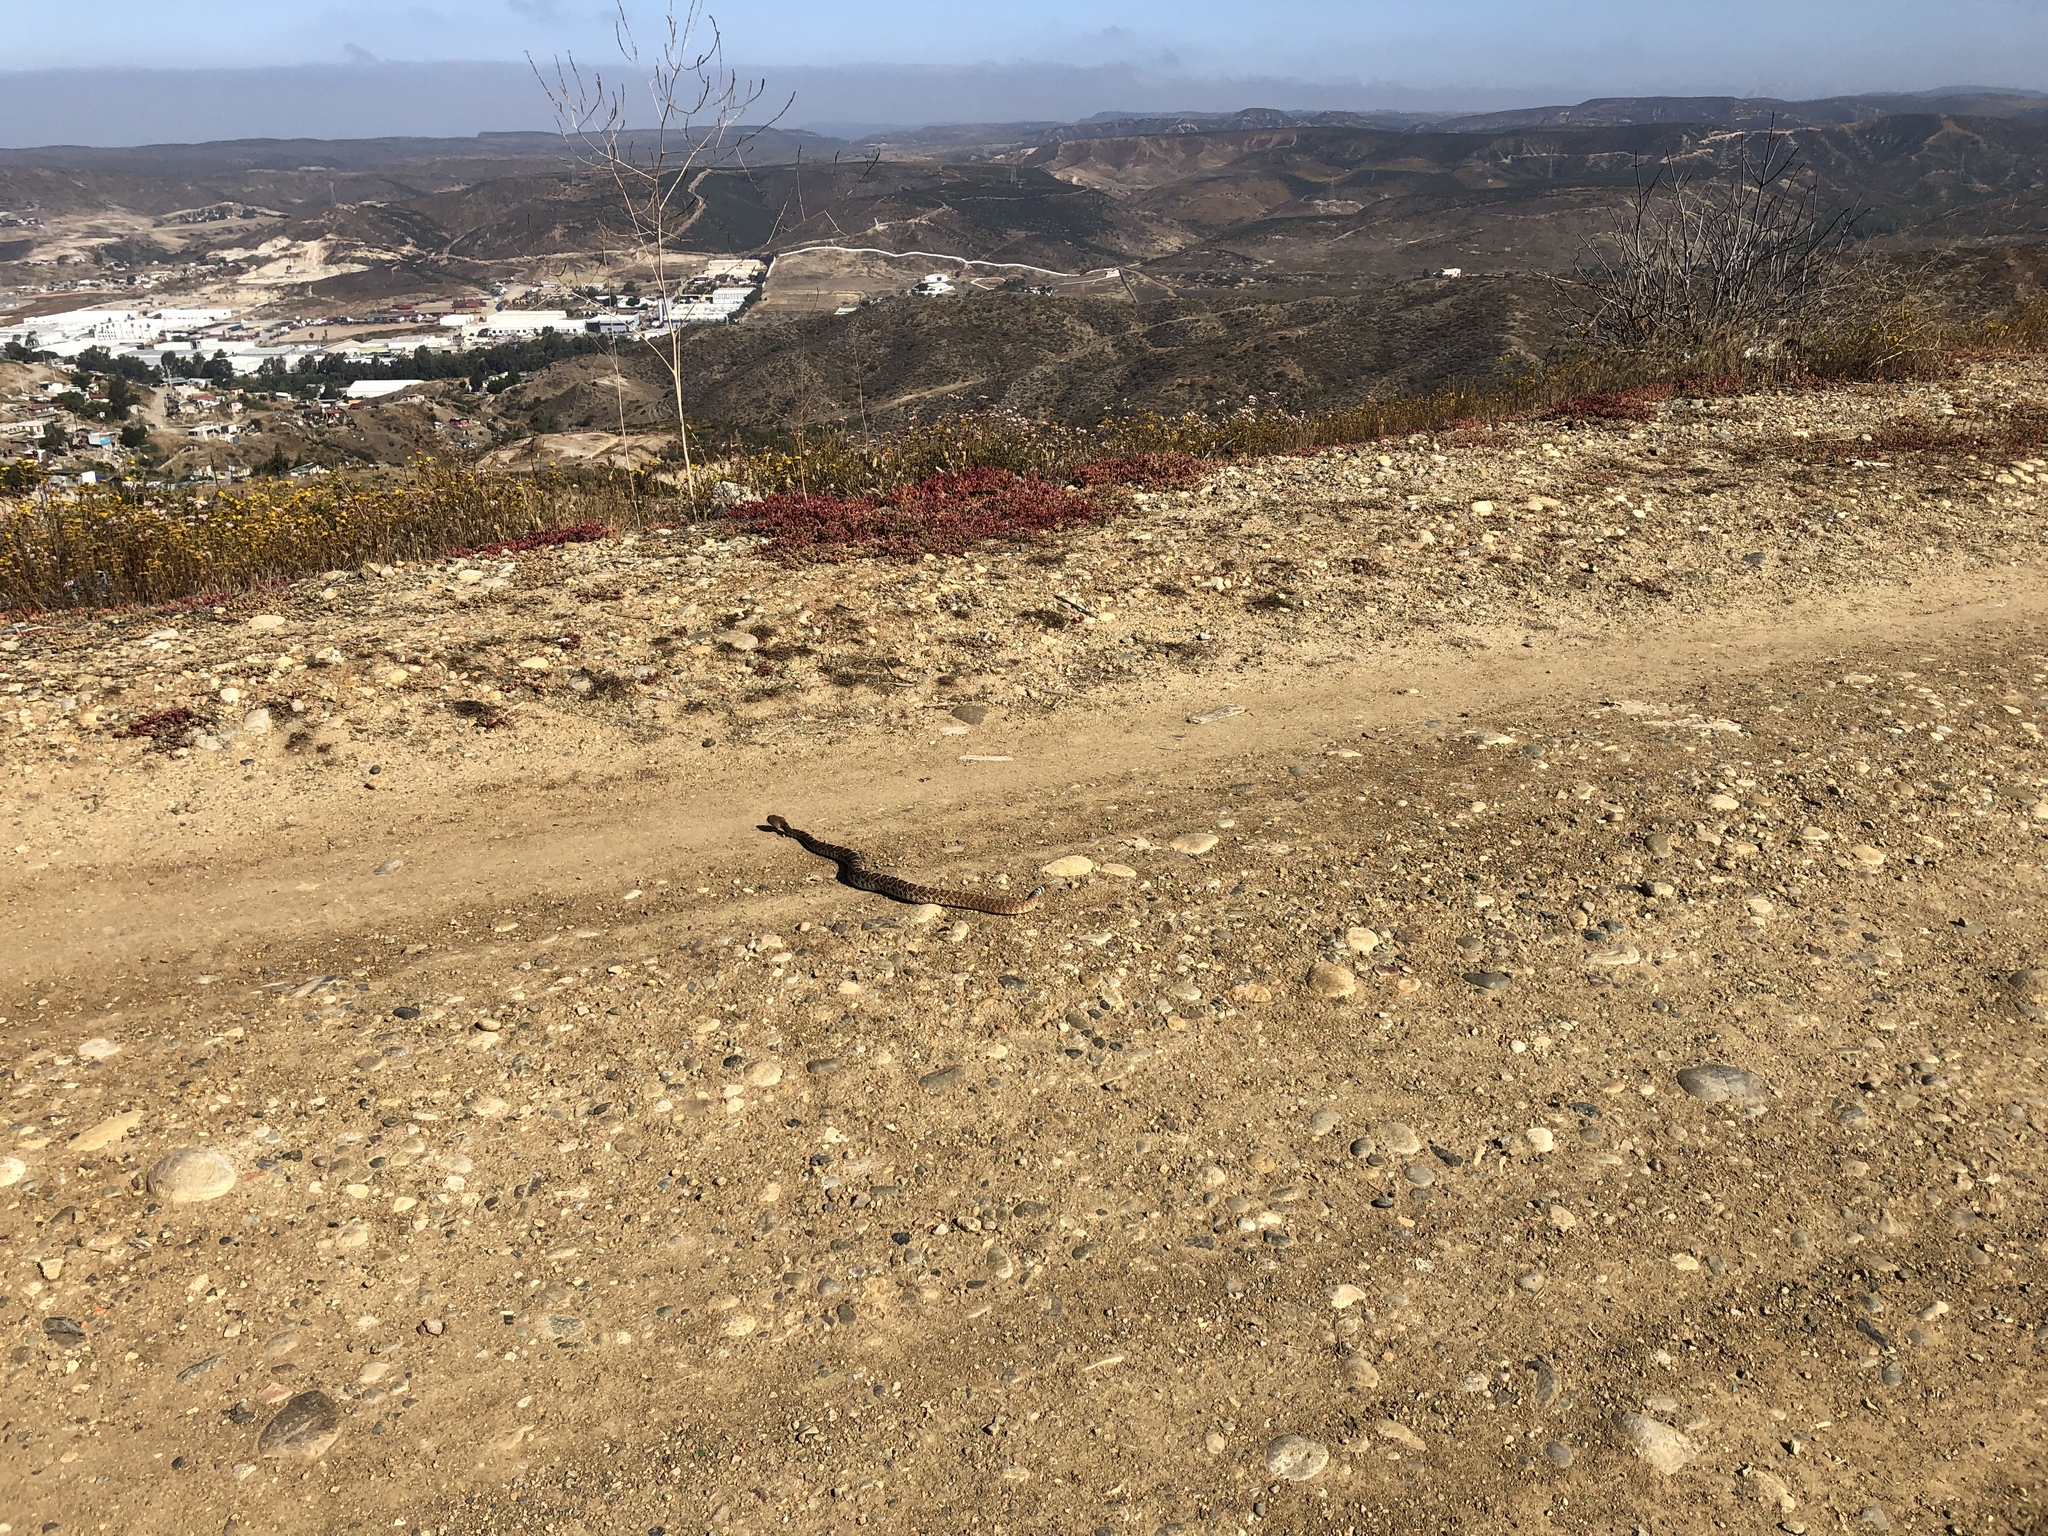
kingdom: Animalia
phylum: Chordata
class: Squamata
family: Viperidae
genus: Crotalus
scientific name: Crotalus ruber
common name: Red diamond rattlesnake
